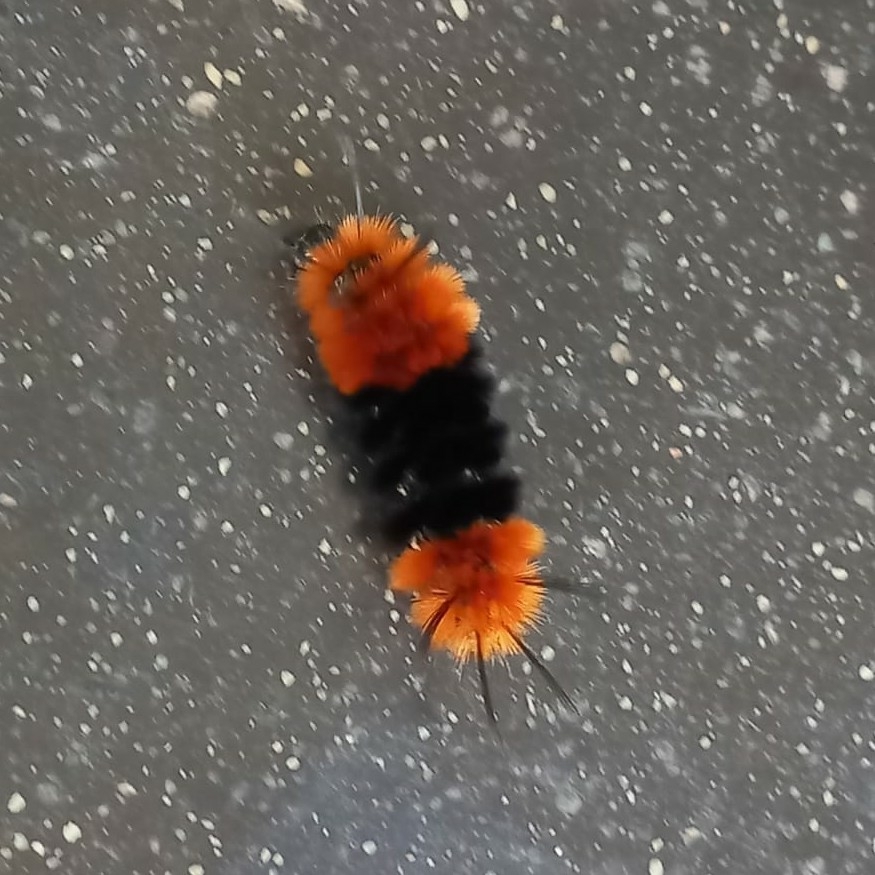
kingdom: Animalia
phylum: Arthropoda
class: Insecta
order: Lepidoptera
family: Erebidae
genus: Turuptiana
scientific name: Turuptiana
